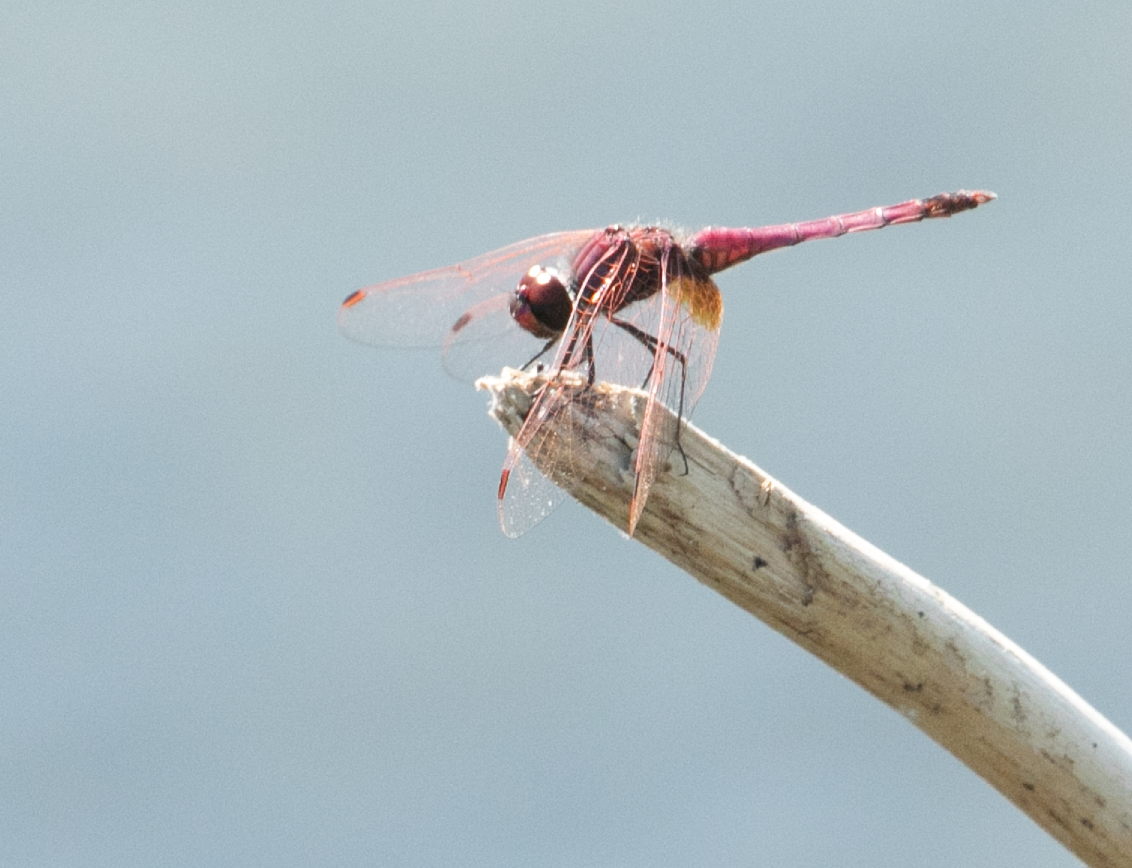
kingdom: Animalia
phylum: Arthropoda
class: Insecta
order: Odonata
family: Libellulidae
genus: Trithemis
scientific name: Trithemis annulata
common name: Violet dropwing
